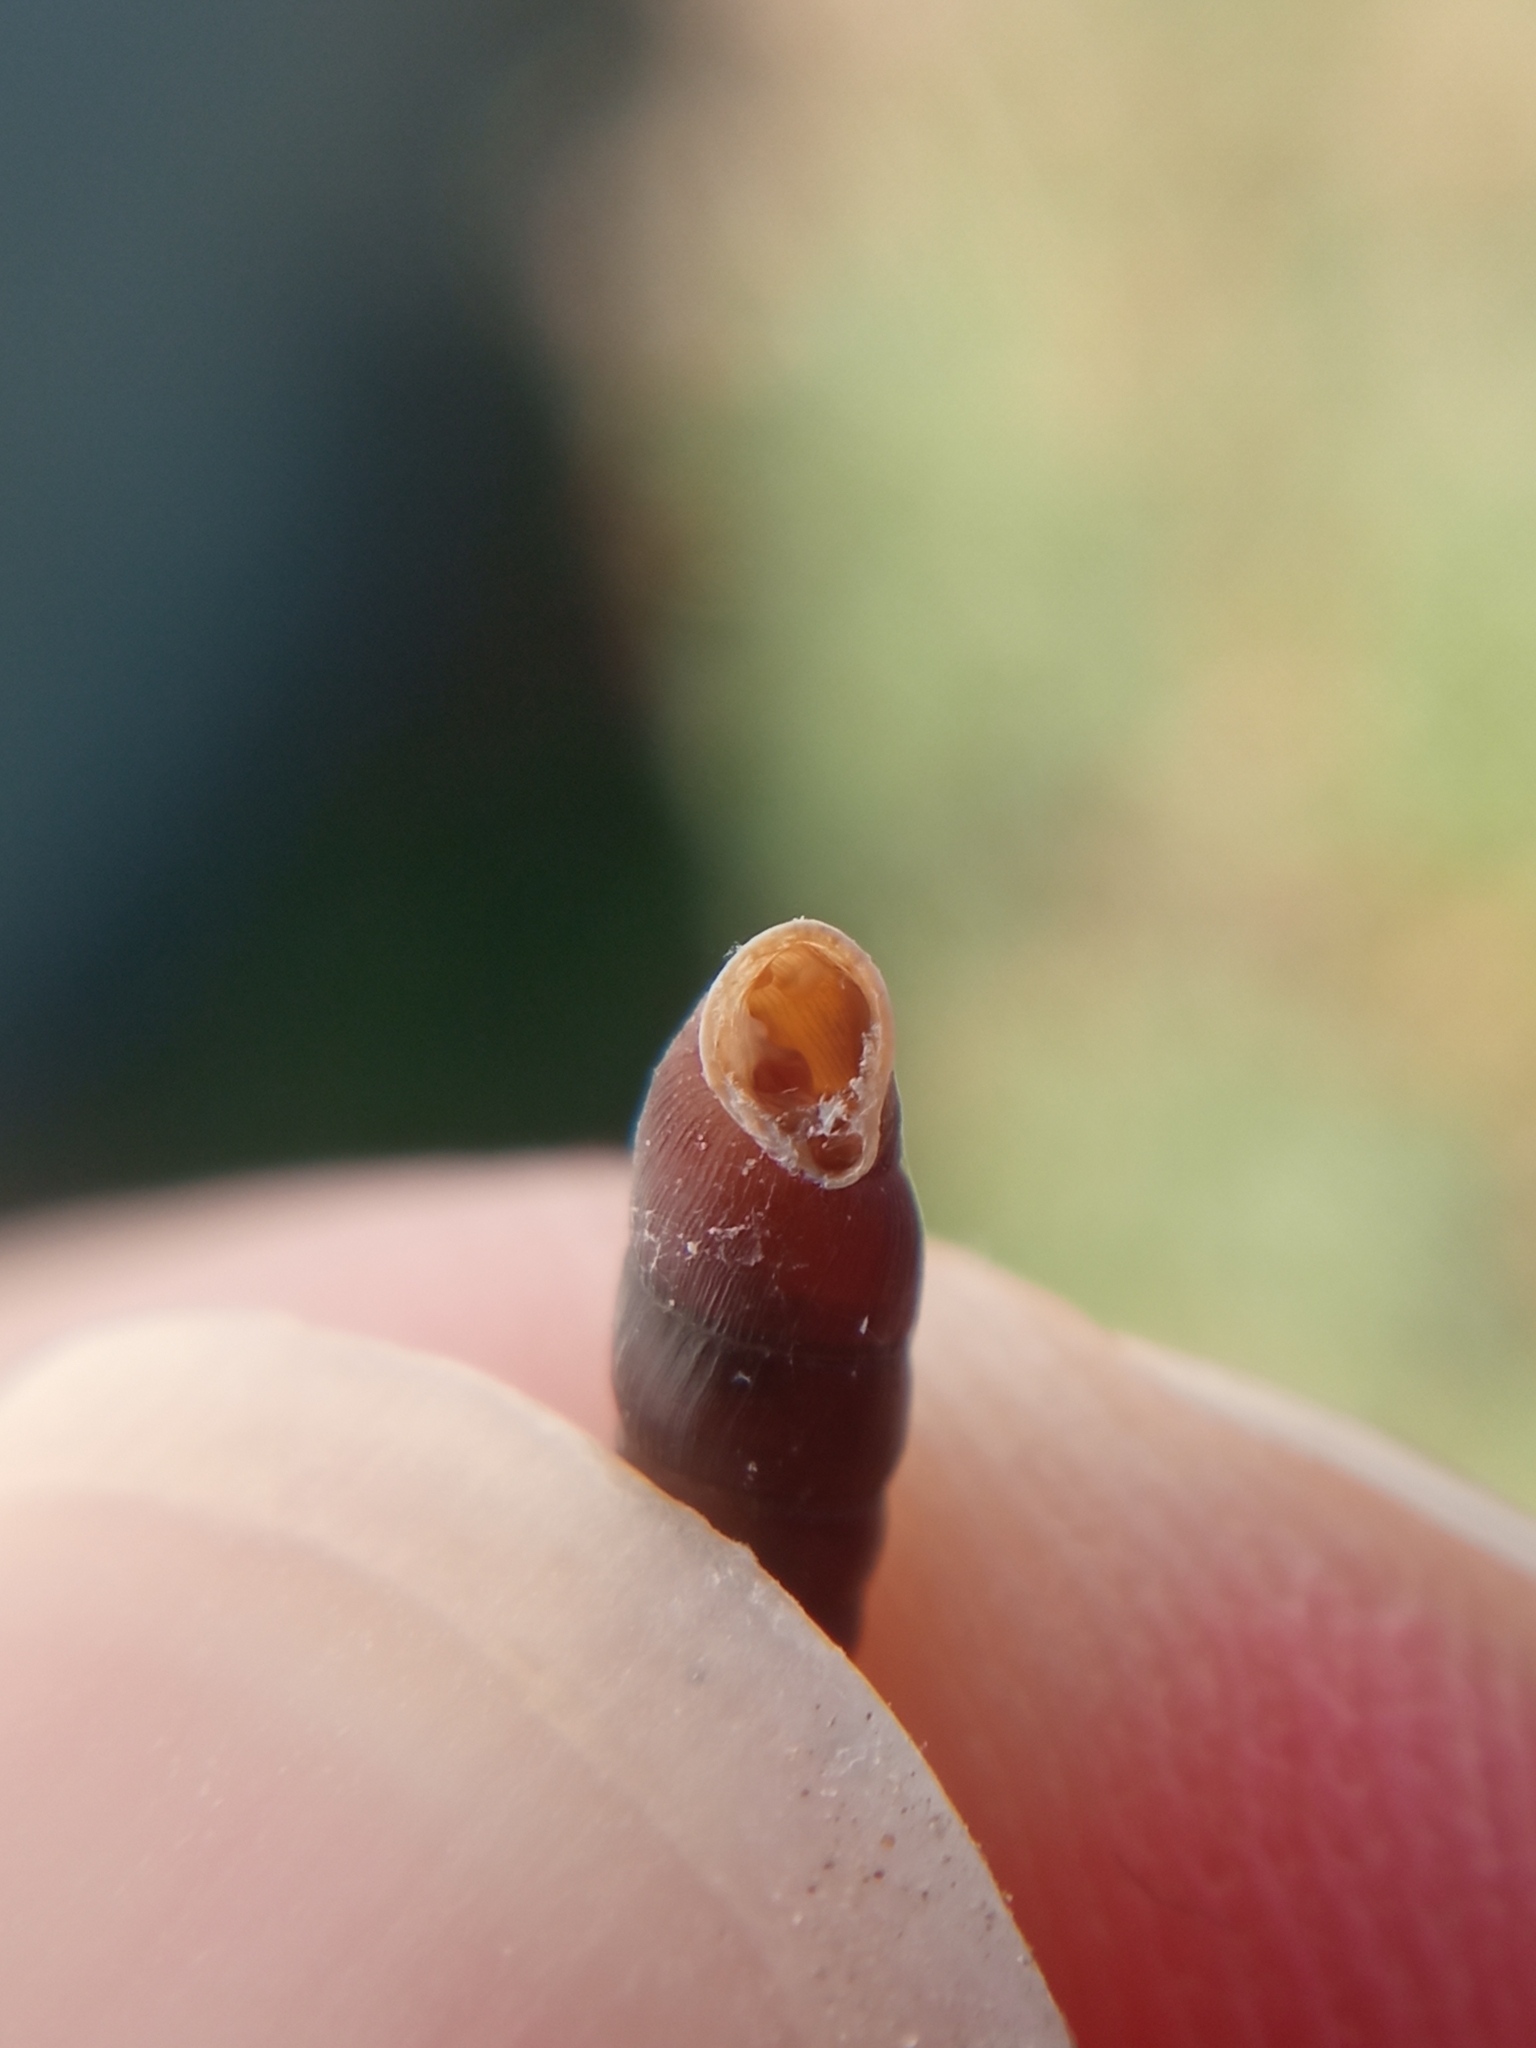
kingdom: Animalia
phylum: Mollusca
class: Gastropoda
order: Stylommatophora
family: Clausiliidae
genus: Clausilia
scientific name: Clausilia rugosa
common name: Tiny door snail
